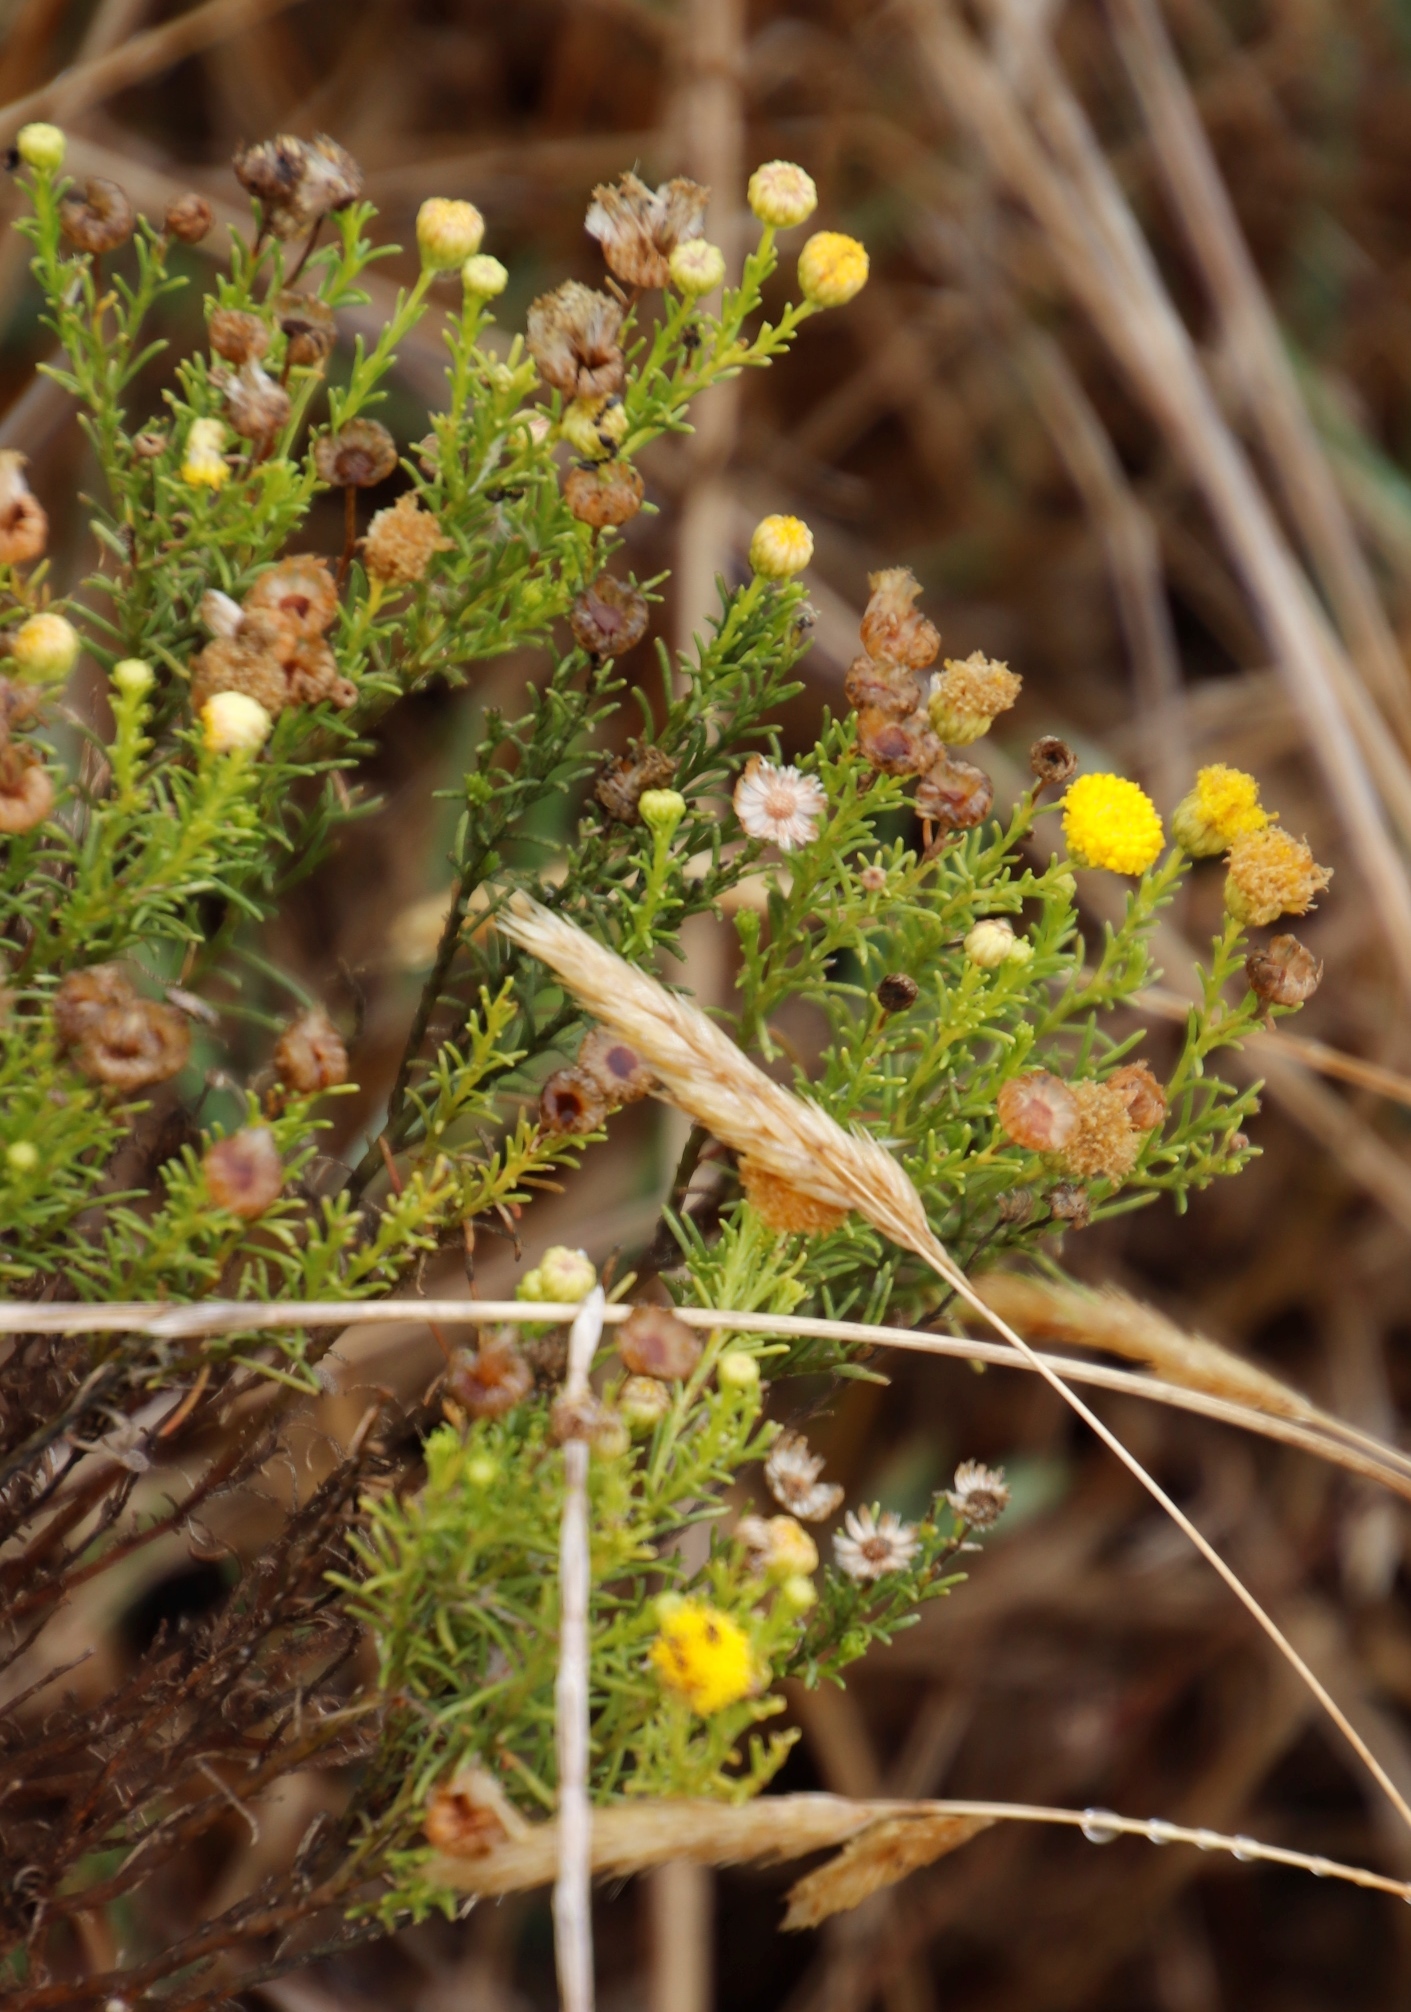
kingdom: Plantae
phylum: Tracheophyta
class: Magnoliopsida
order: Asterales
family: Asteraceae
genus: Chrysocoma
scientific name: Chrysocoma ciliata
